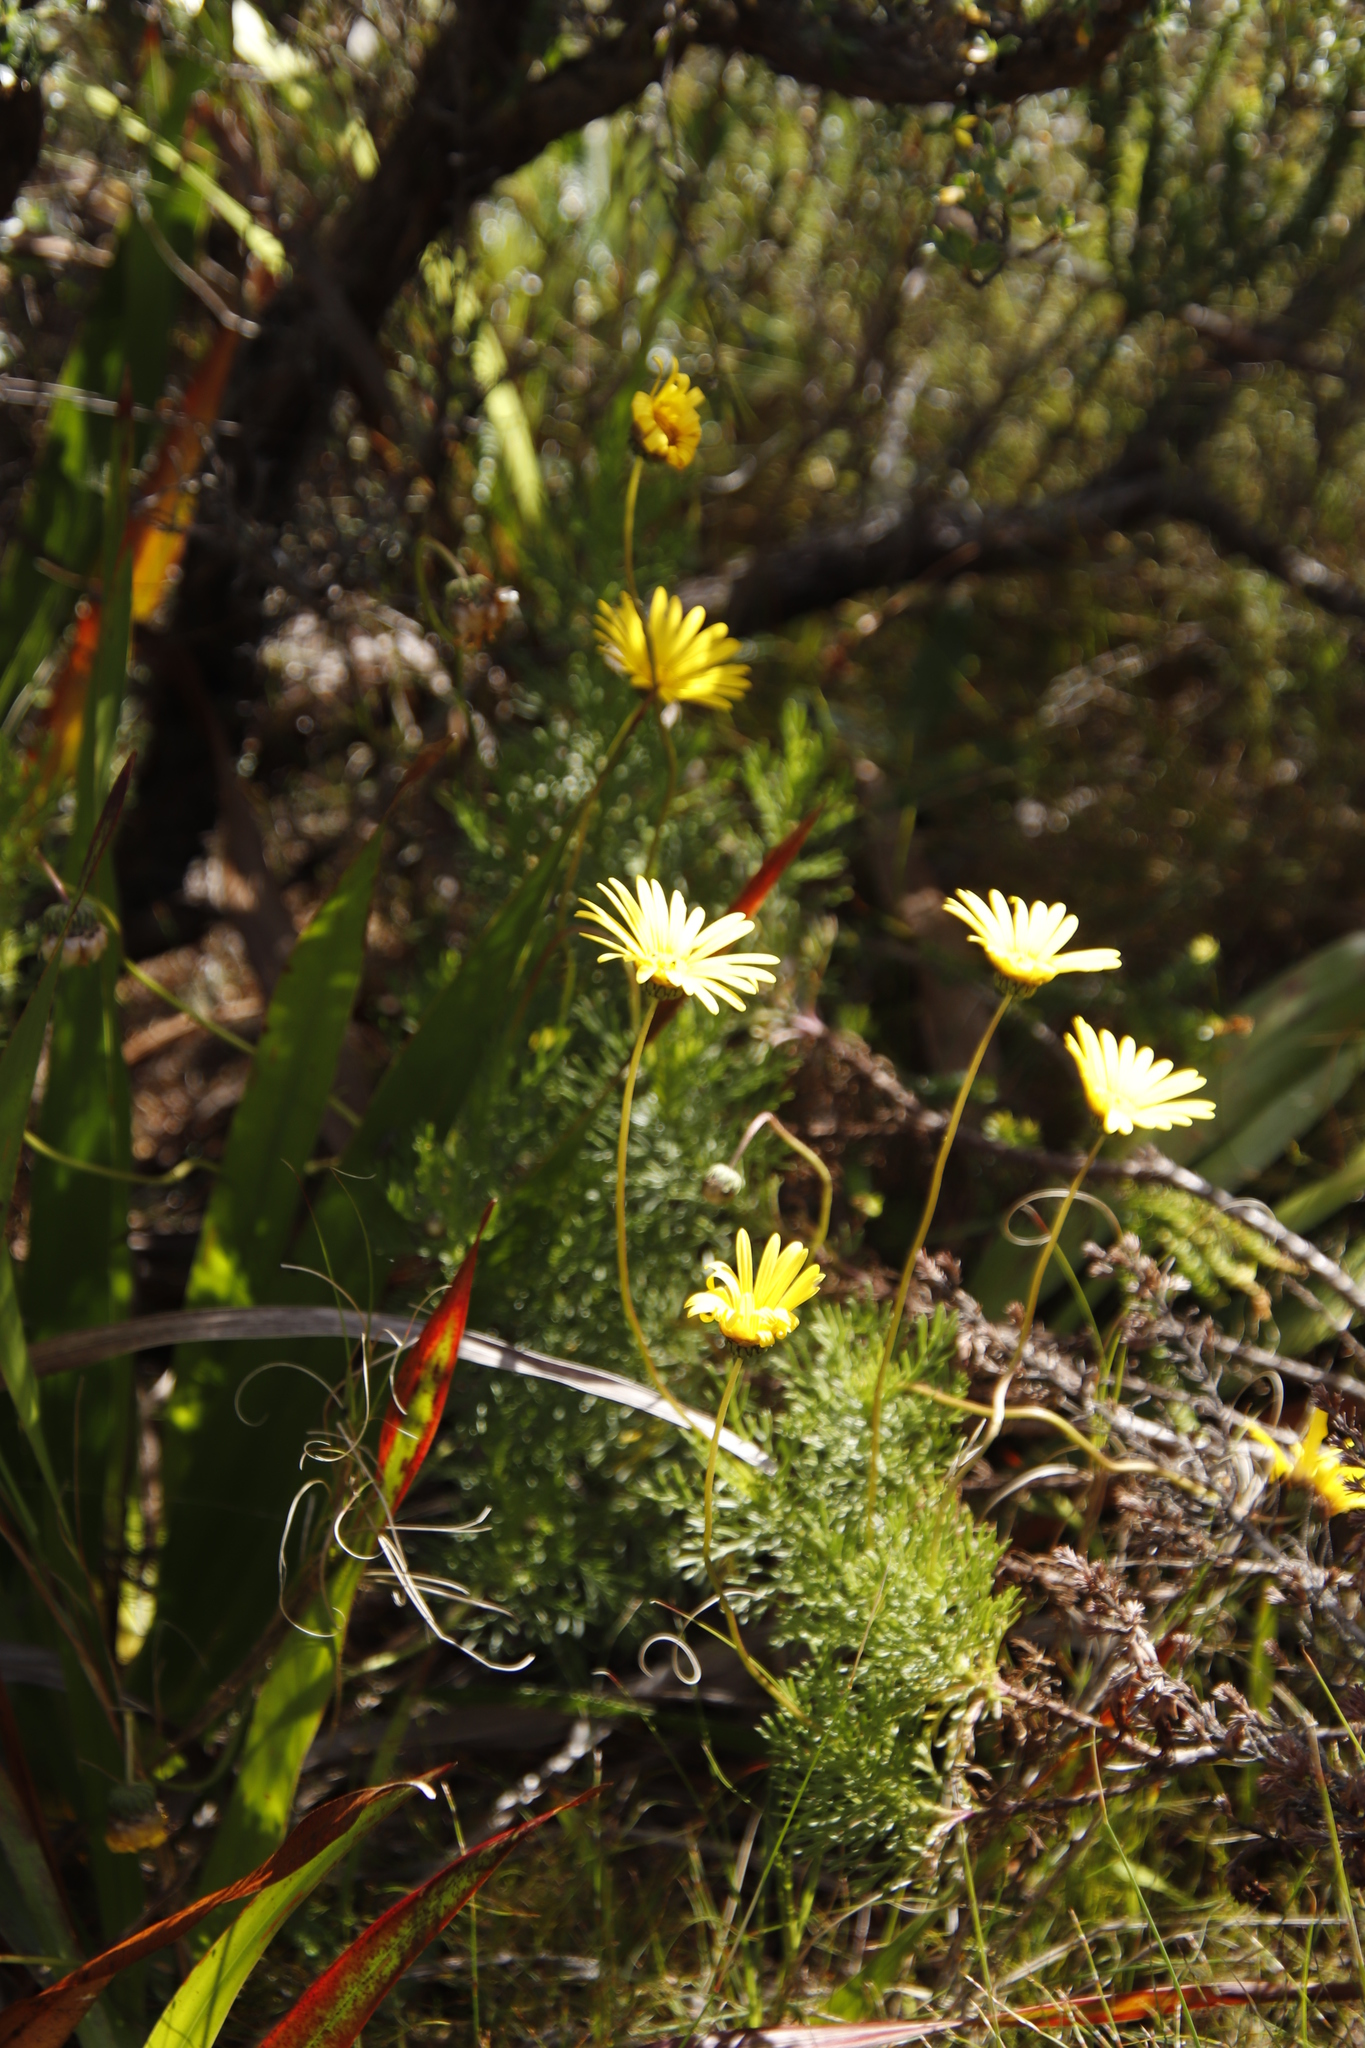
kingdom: Plantae
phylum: Tracheophyta
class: Magnoliopsida
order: Asterales
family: Asteraceae
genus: Euryops
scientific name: Euryops abrotanifolius
